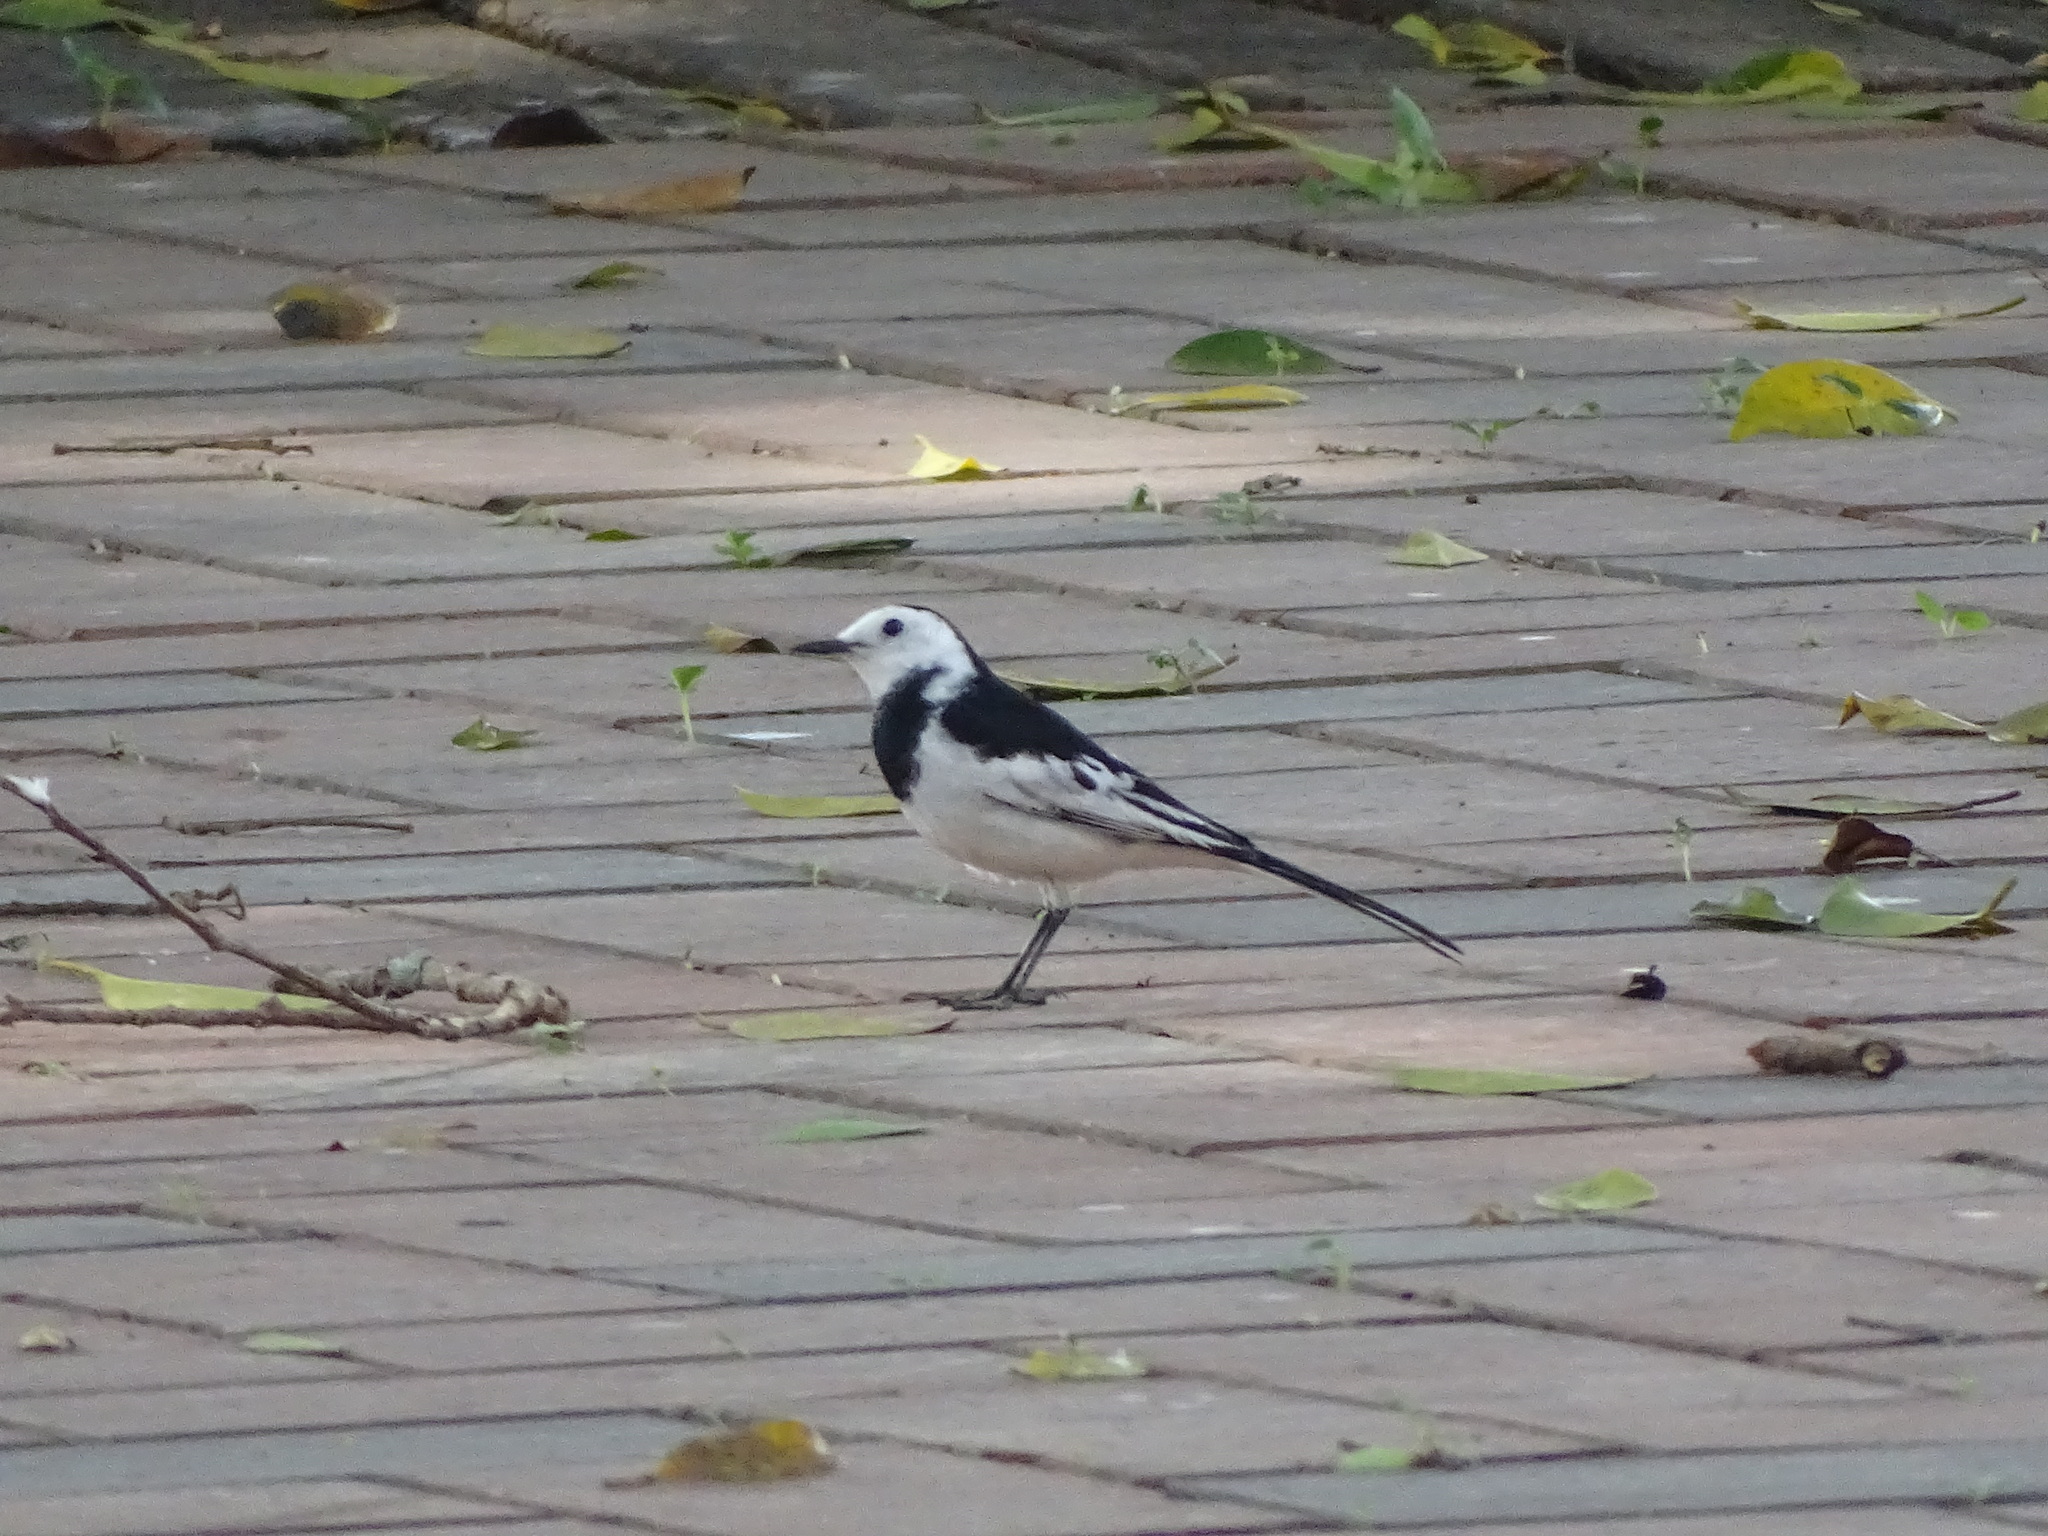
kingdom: Animalia
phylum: Chordata
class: Aves
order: Passeriformes
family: Motacillidae
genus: Motacilla
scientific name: Motacilla alba
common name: White wagtail
